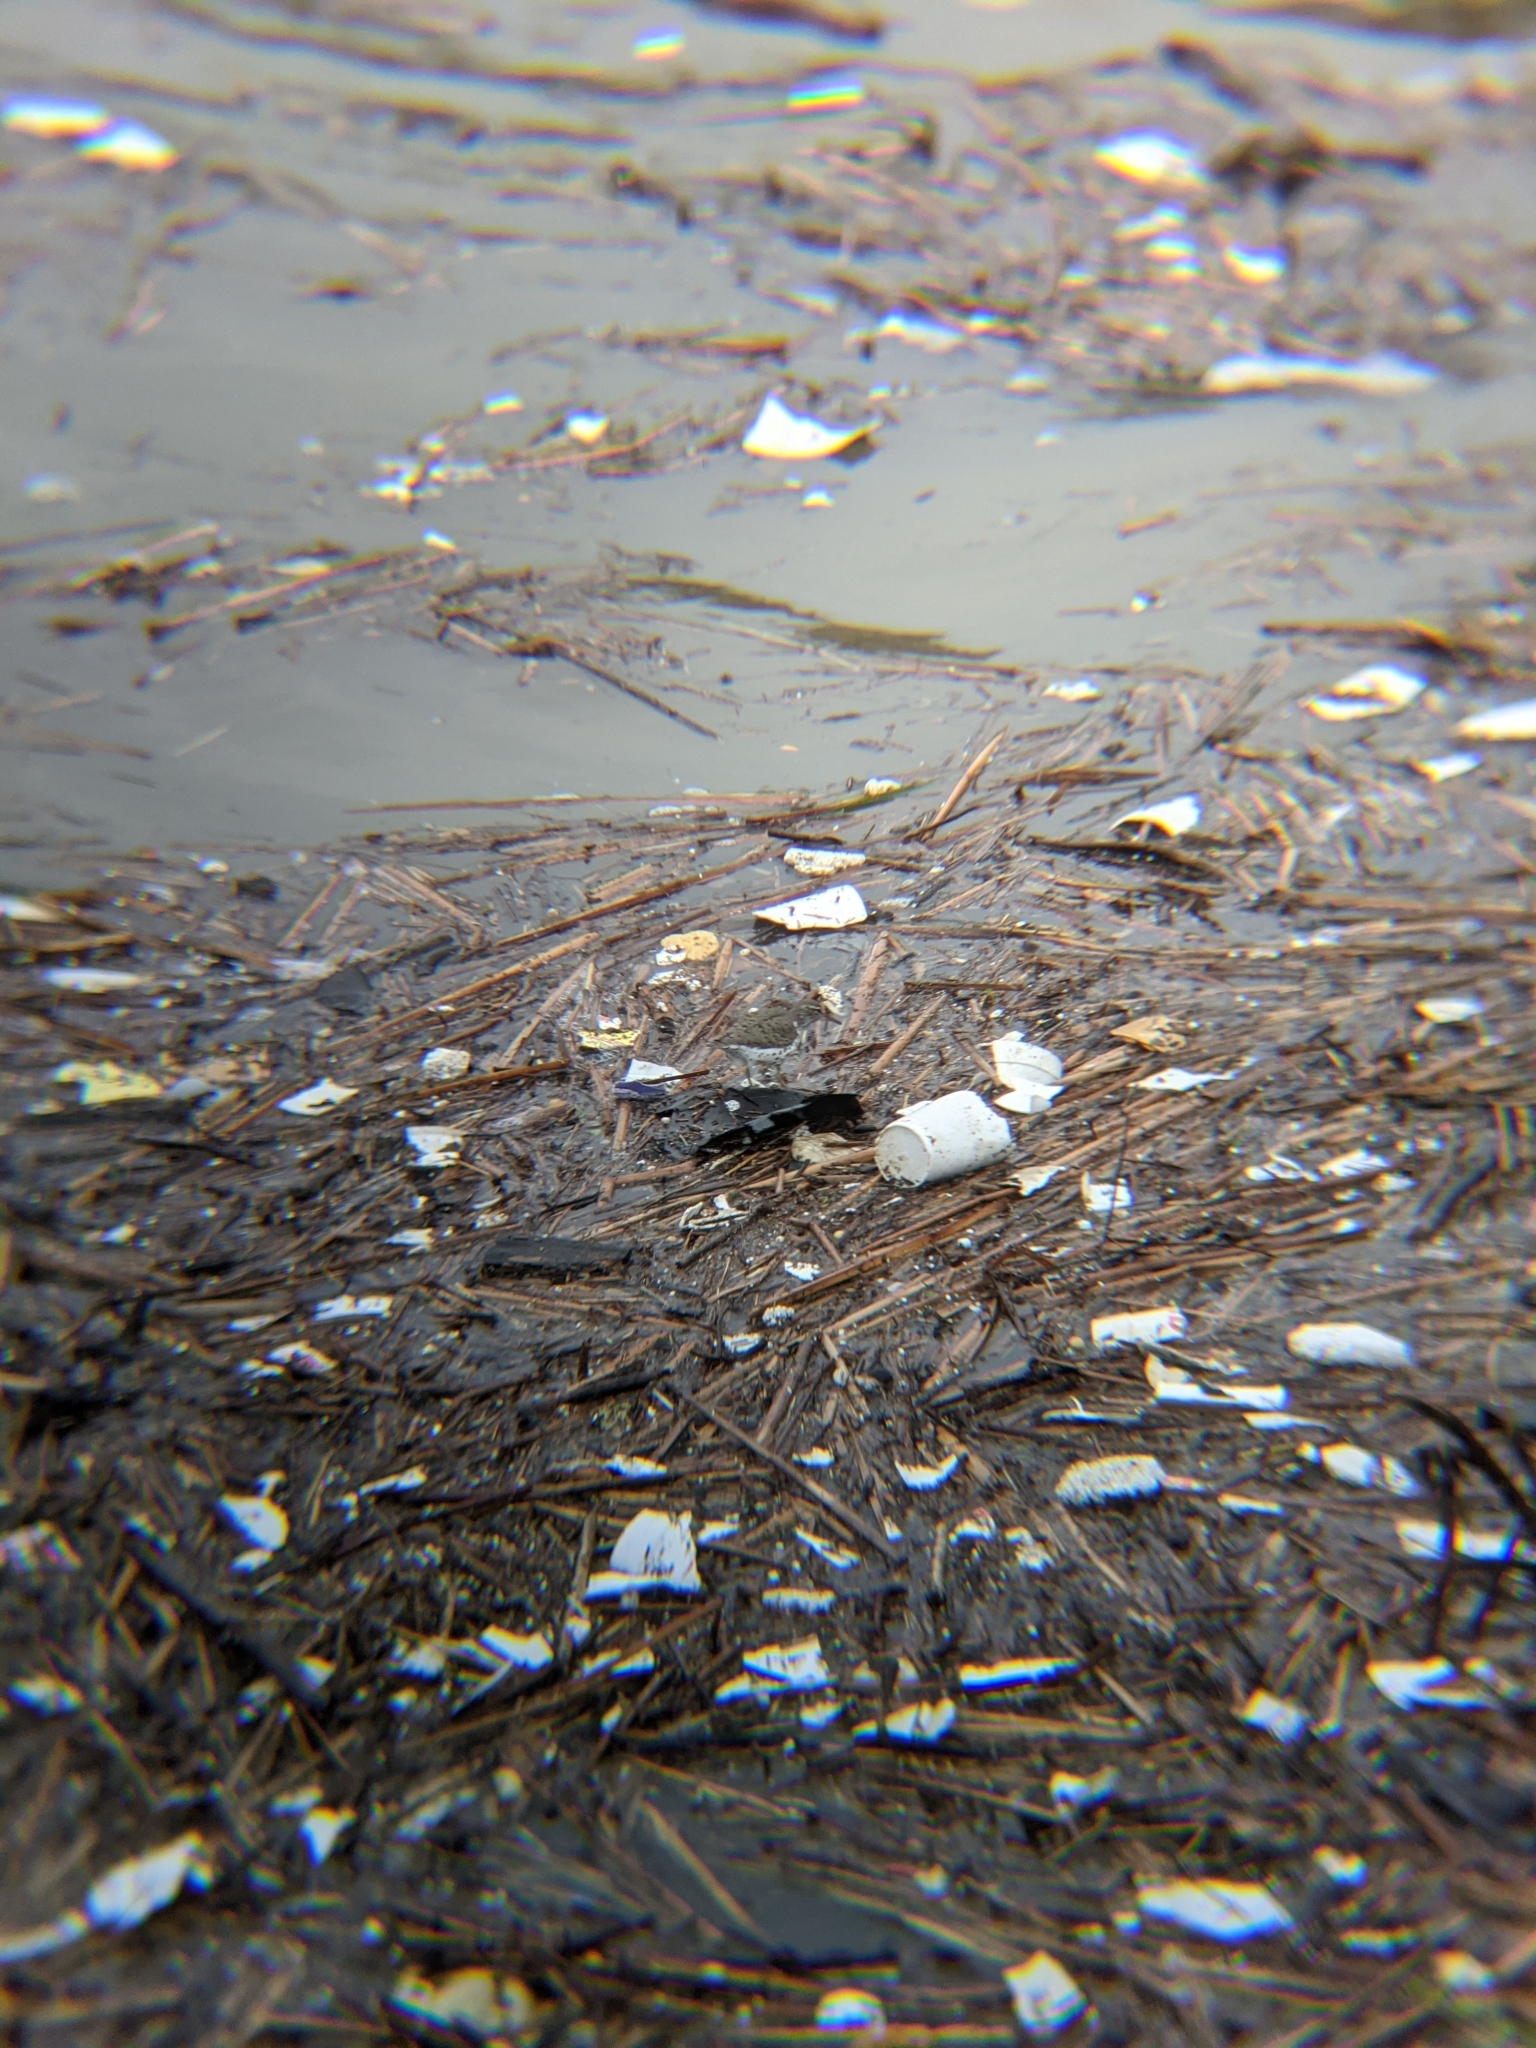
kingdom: Animalia
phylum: Chordata
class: Aves
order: Charadriiformes
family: Scolopacidae
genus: Actitis
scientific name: Actitis macularius
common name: Spotted sandpiper
